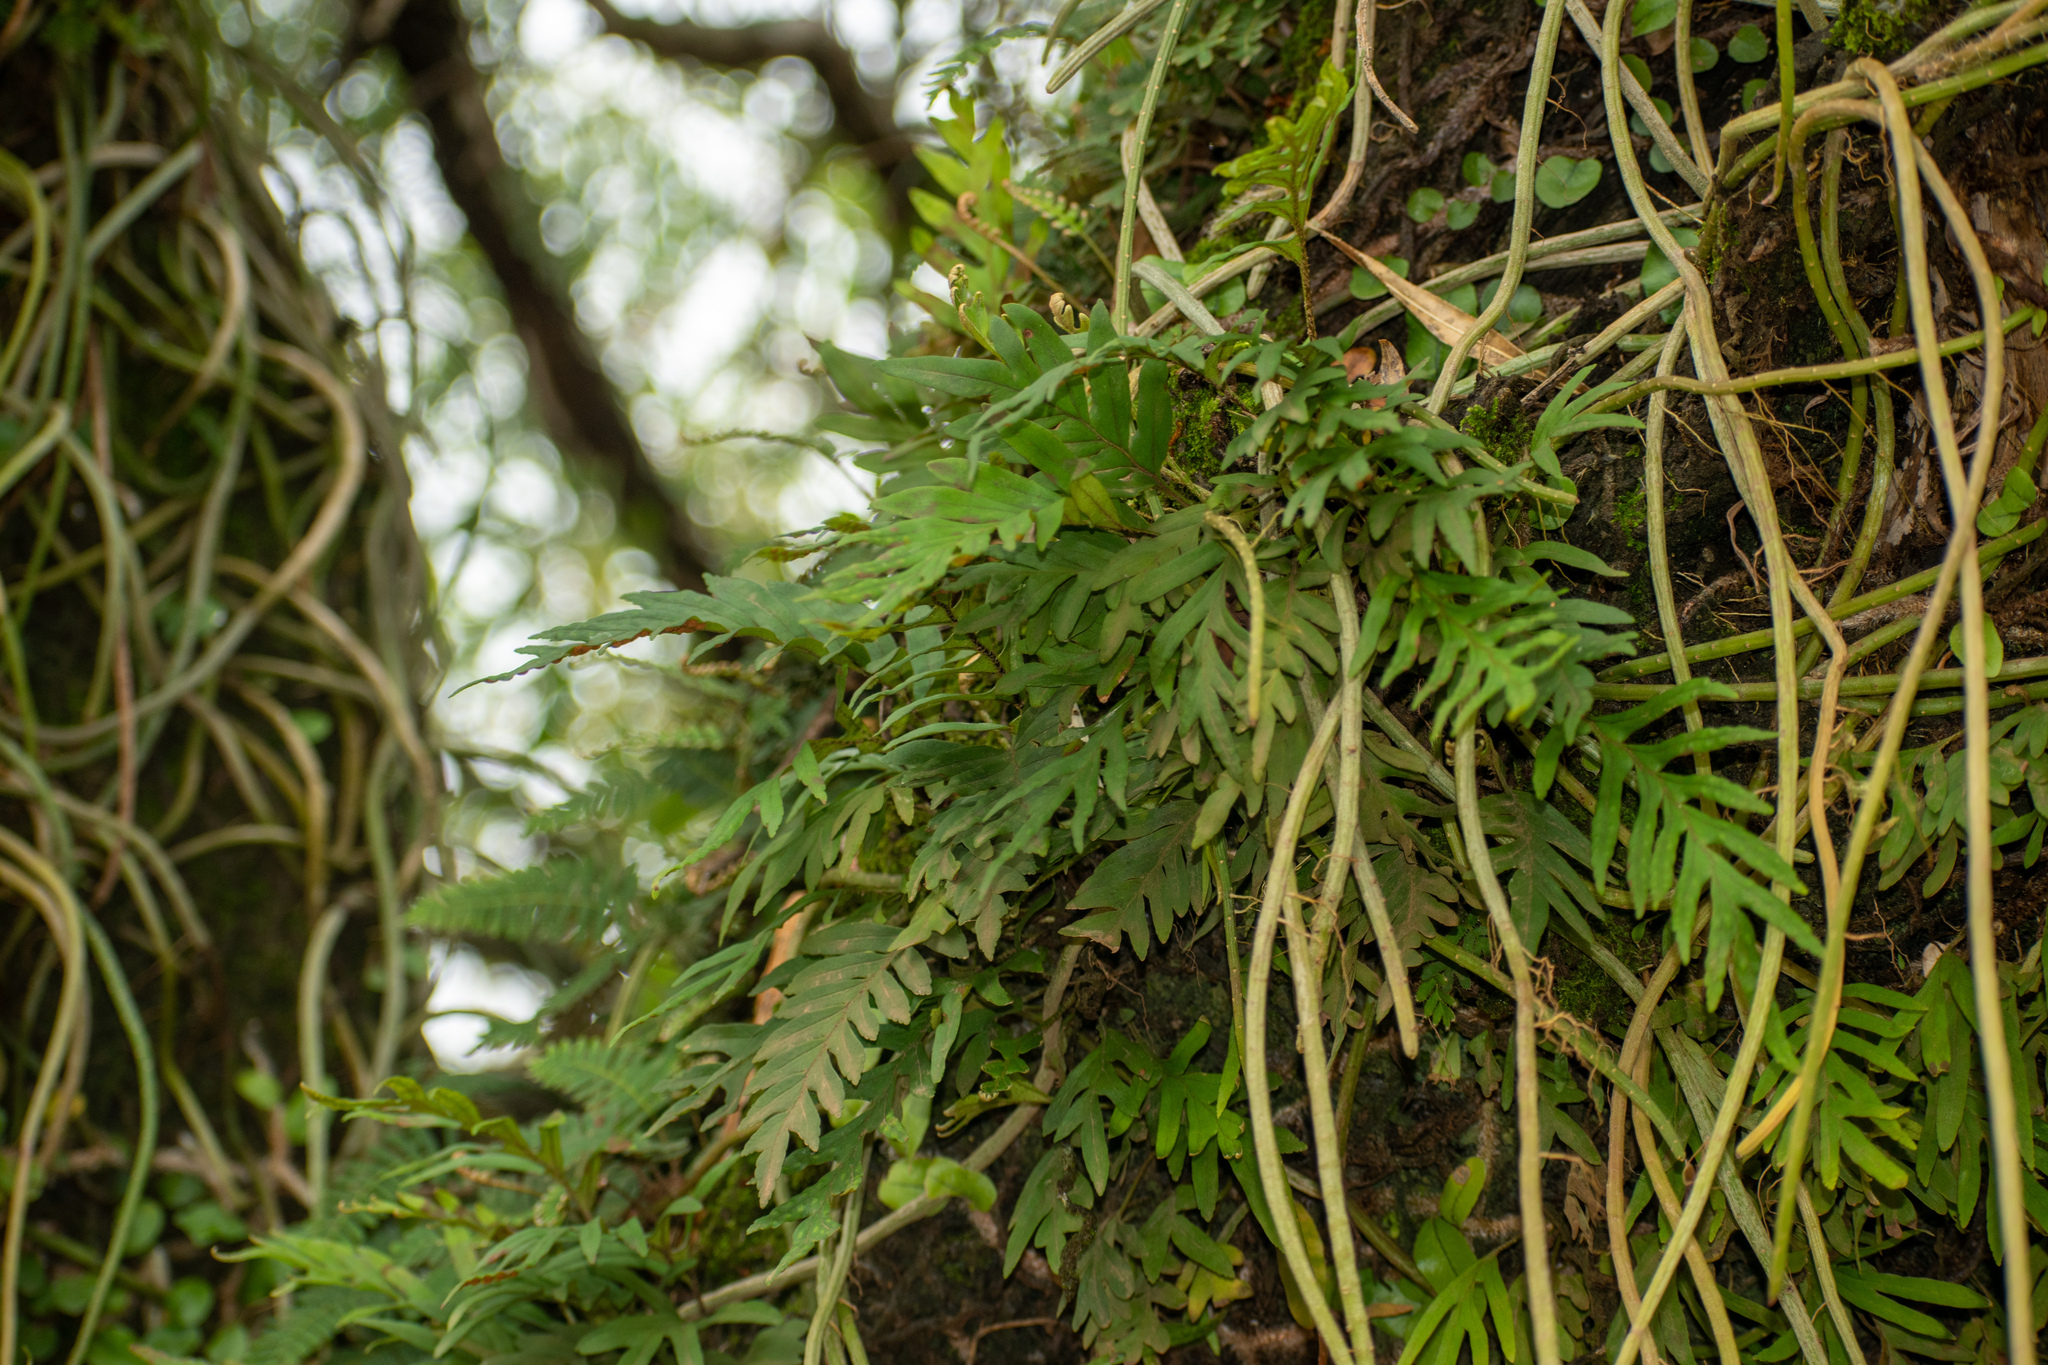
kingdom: Plantae
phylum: Tracheophyta
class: Polypodiopsida
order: Polypodiales
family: Polypodiaceae
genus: Pleopeltis
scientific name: Pleopeltis pleopeltifolia
